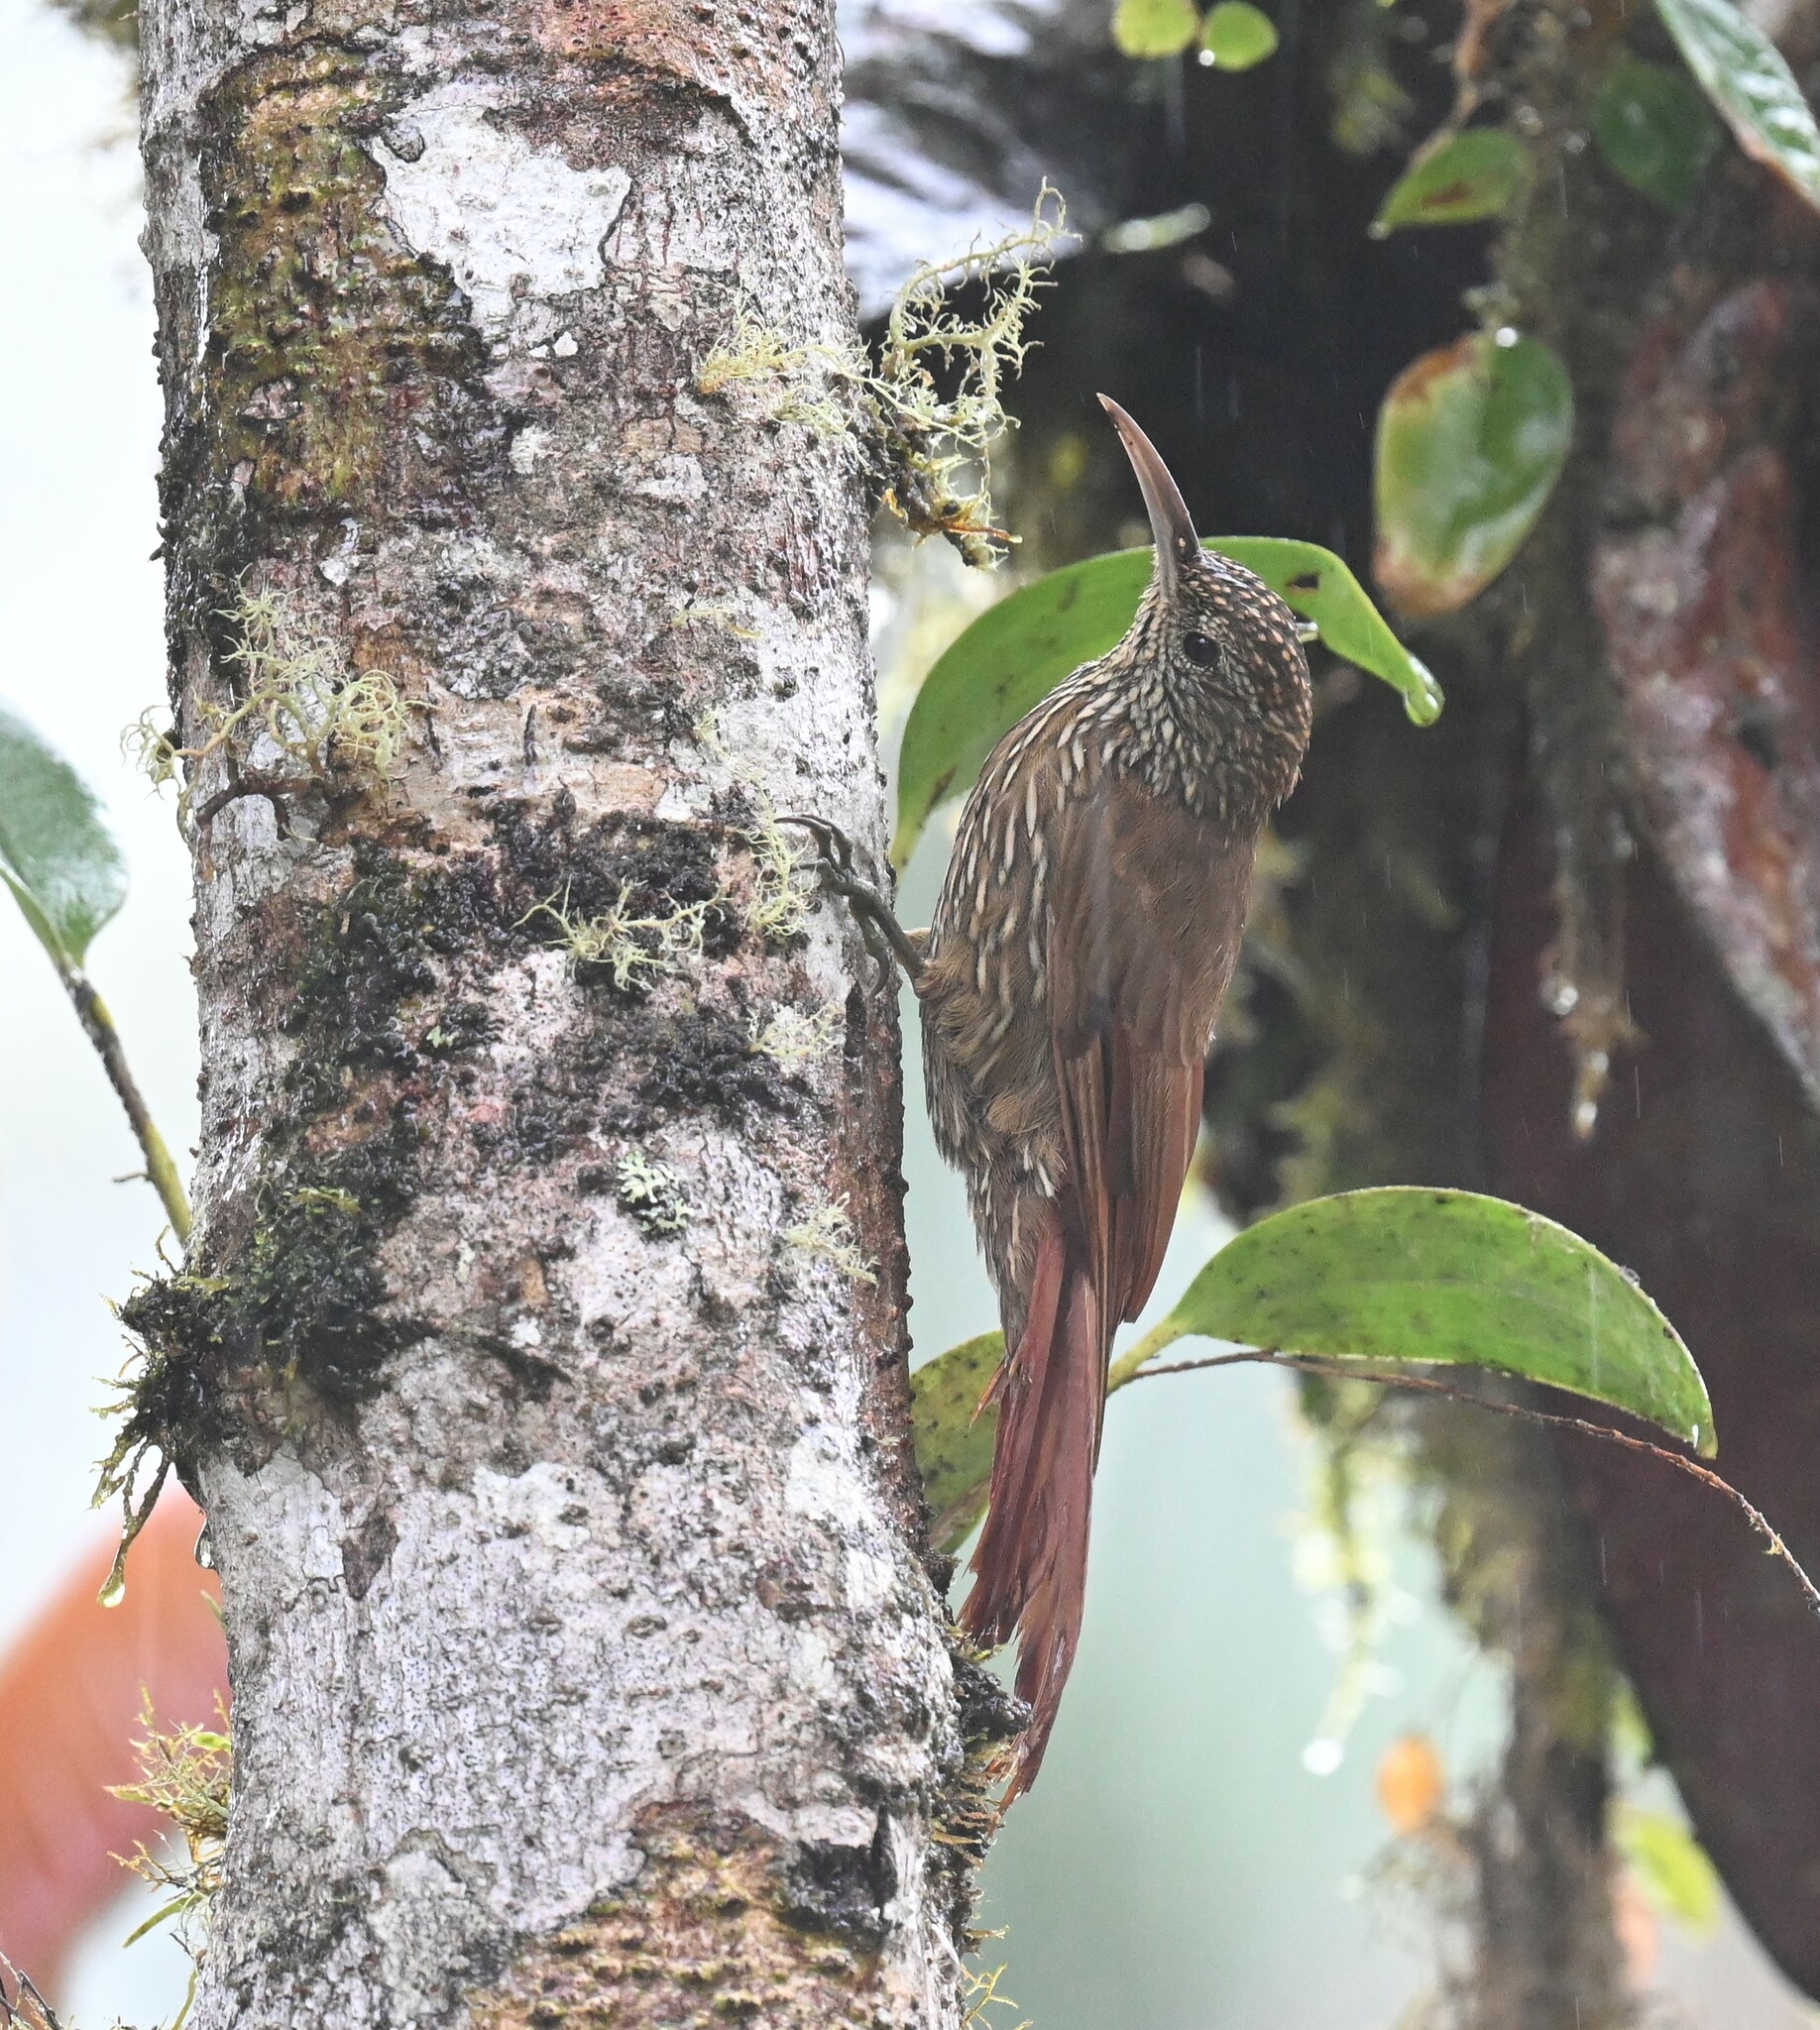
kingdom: Animalia
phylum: Chordata
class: Aves
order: Passeriformes
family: Furnariidae
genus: Lepidocolaptes
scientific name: Lepidocolaptes lacrymiger
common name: Montane woodcreeper
